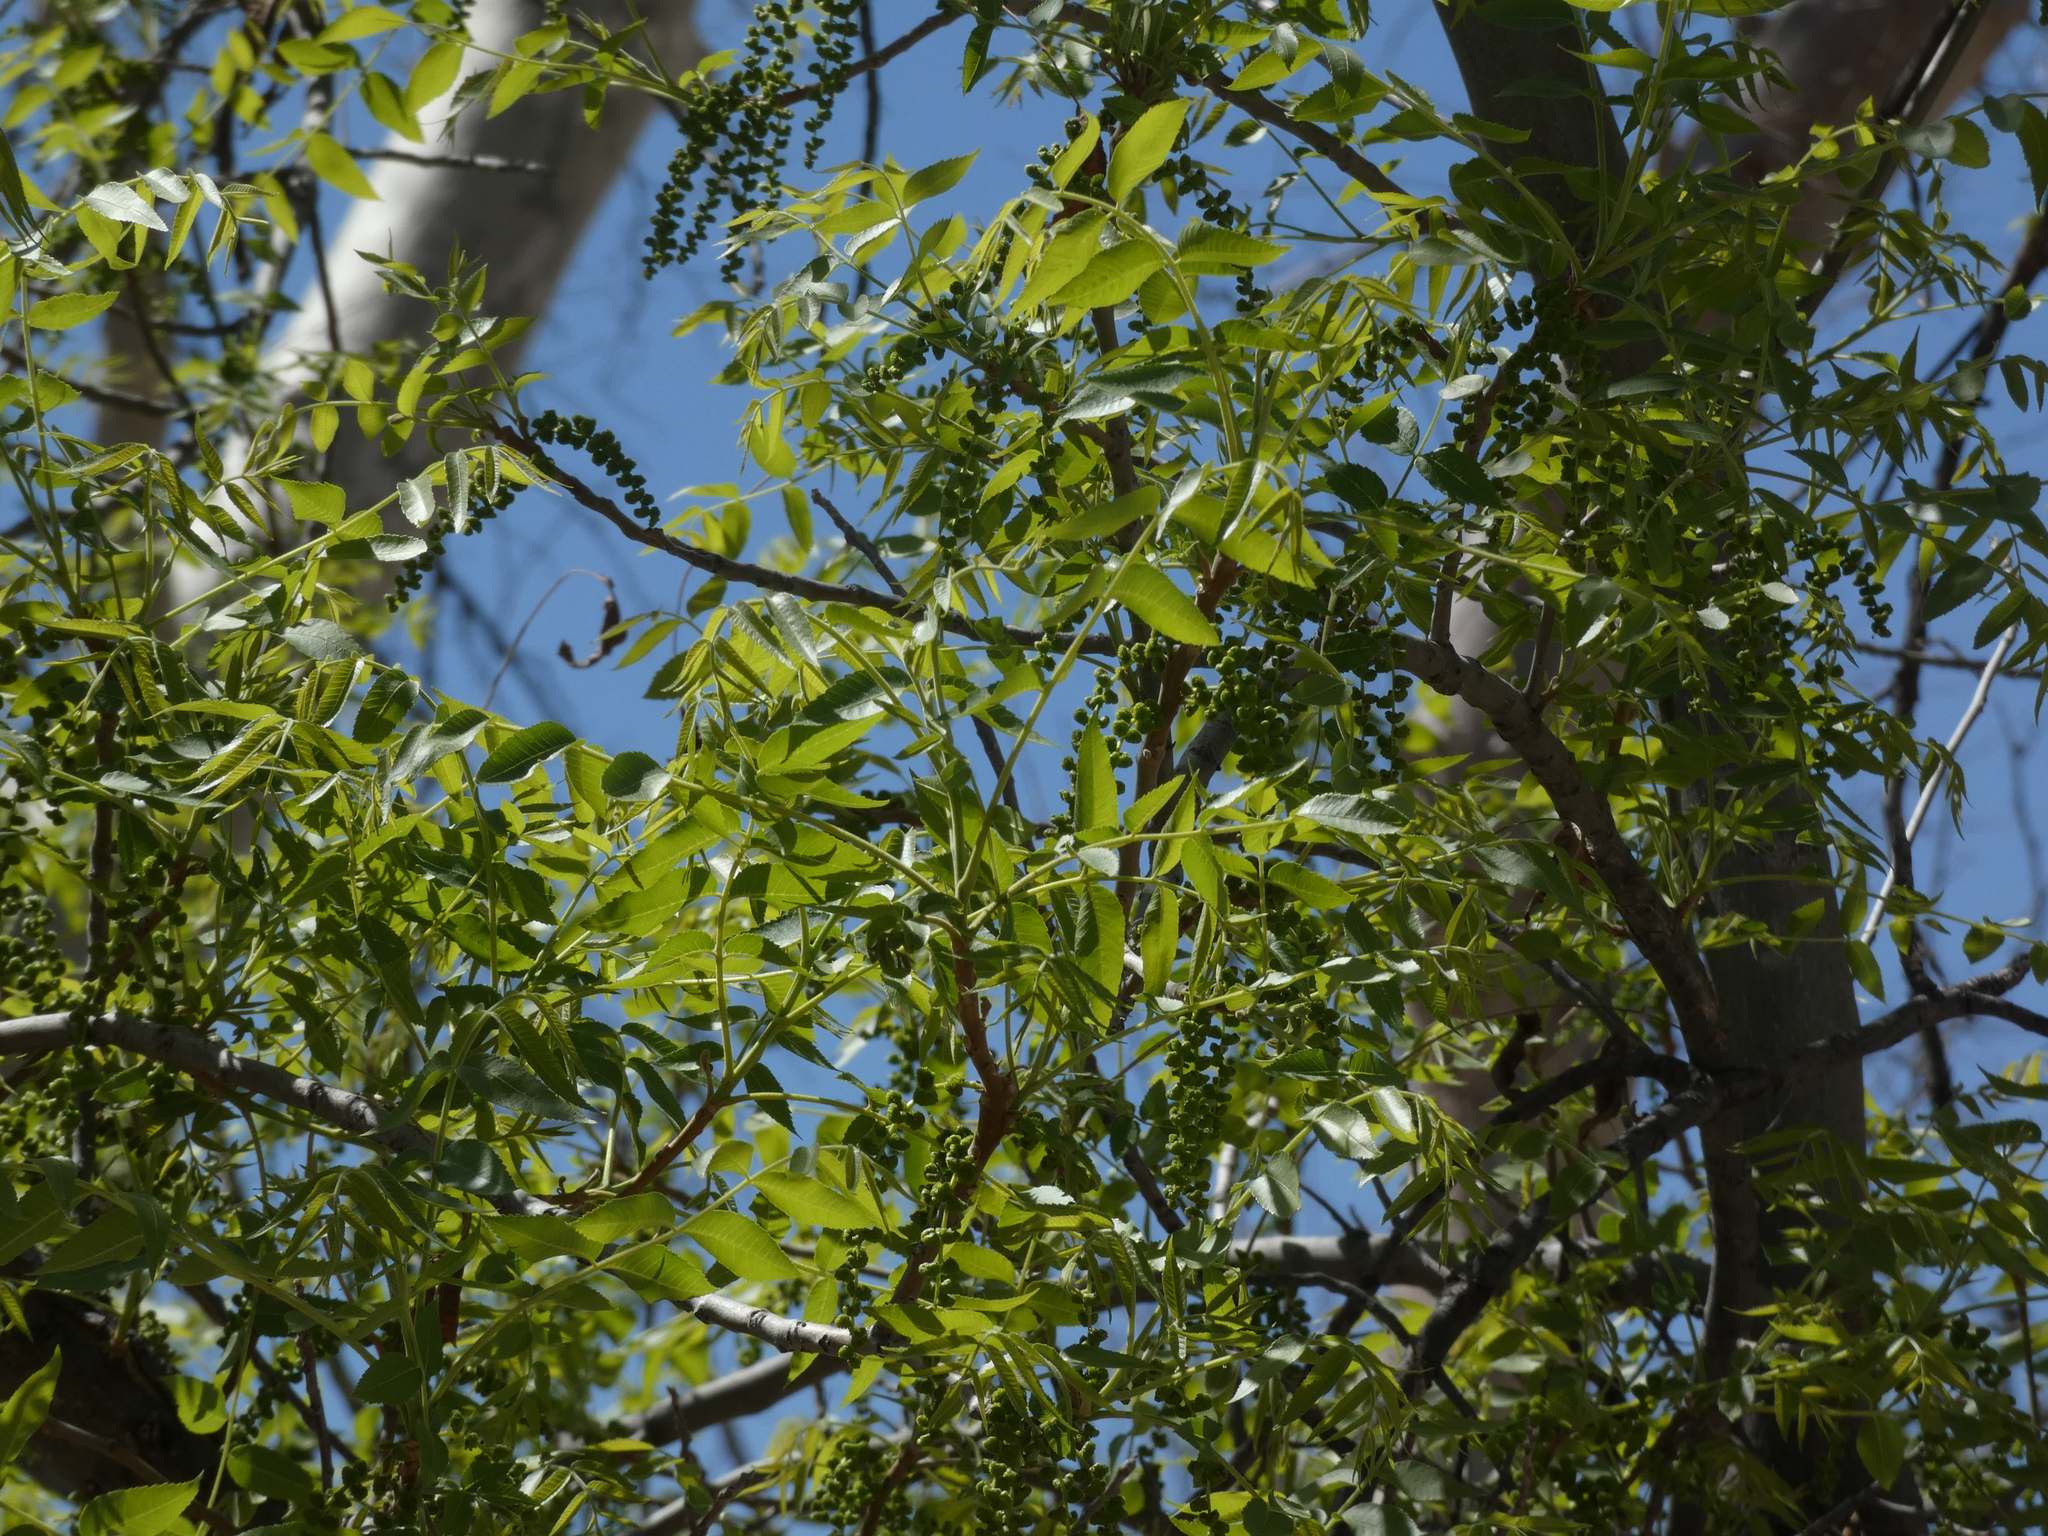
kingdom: Plantae
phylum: Tracheophyta
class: Magnoliopsida
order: Fagales
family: Juglandaceae
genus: Juglans
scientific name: Juglans major
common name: Arizona walnut
